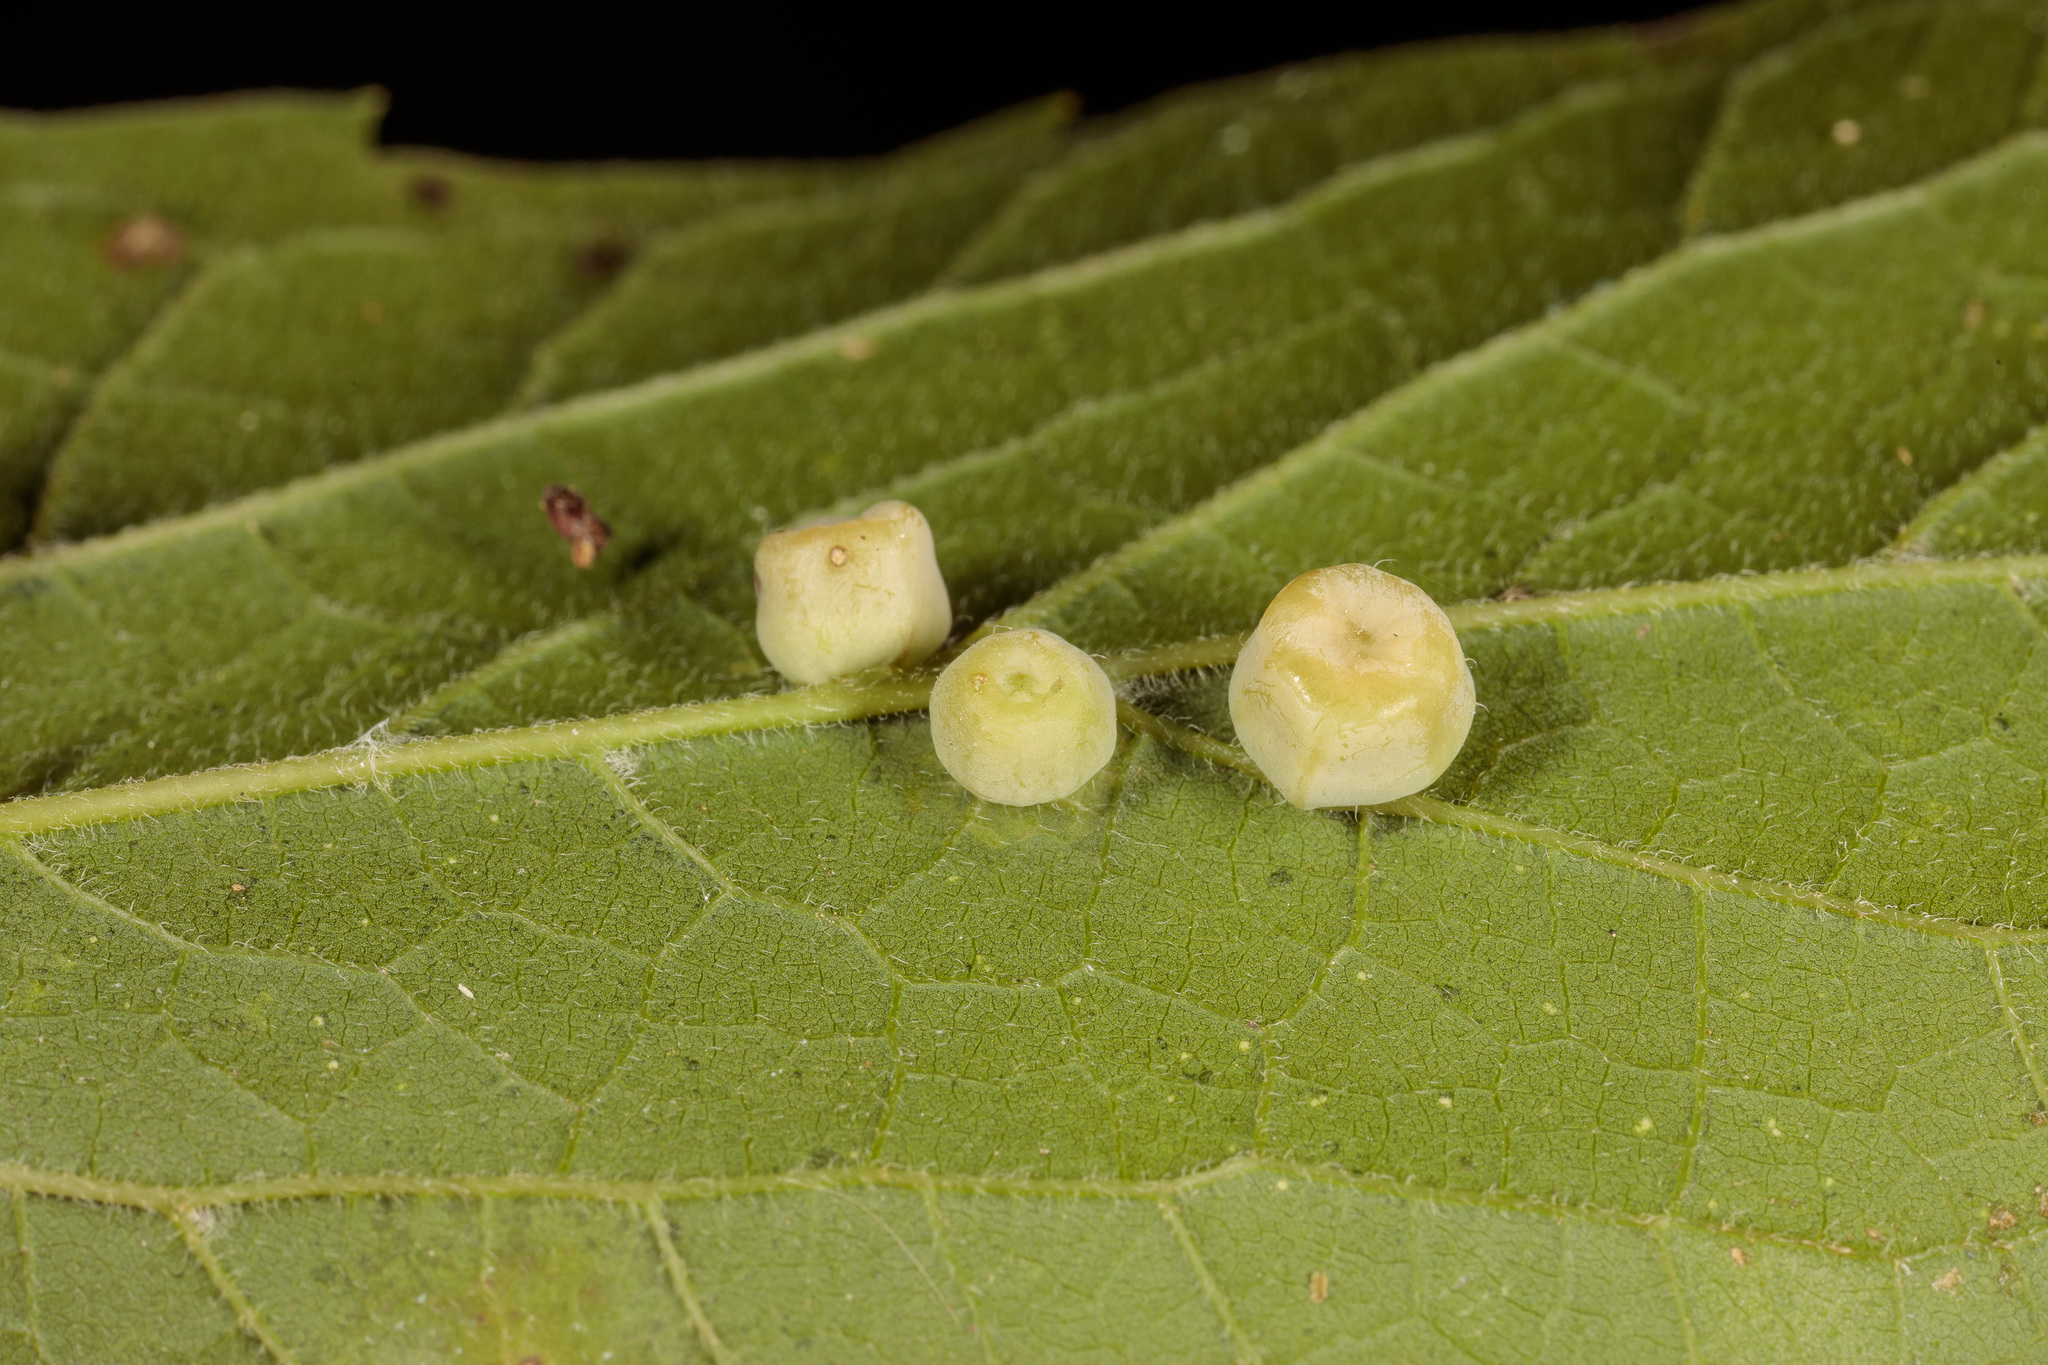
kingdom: Animalia
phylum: Arthropoda
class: Insecta
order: Hemiptera
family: Aphalaridae
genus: Pachypsylla
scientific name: Pachypsylla celtidismamma
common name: Hackberry nipplegall psyllid
